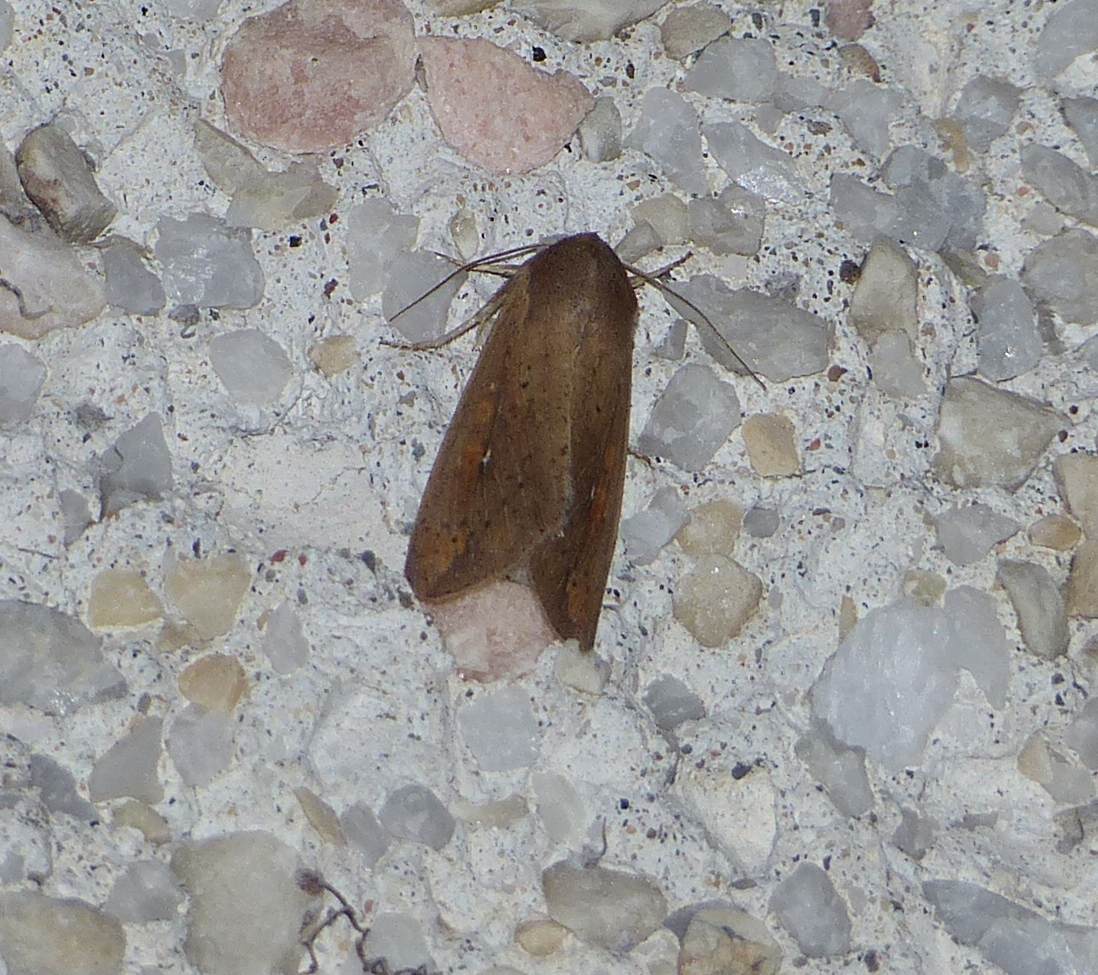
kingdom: Animalia
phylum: Arthropoda
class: Insecta
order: Lepidoptera
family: Noctuidae
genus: Mythimna
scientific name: Mythimna unipuncta
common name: White-speck
